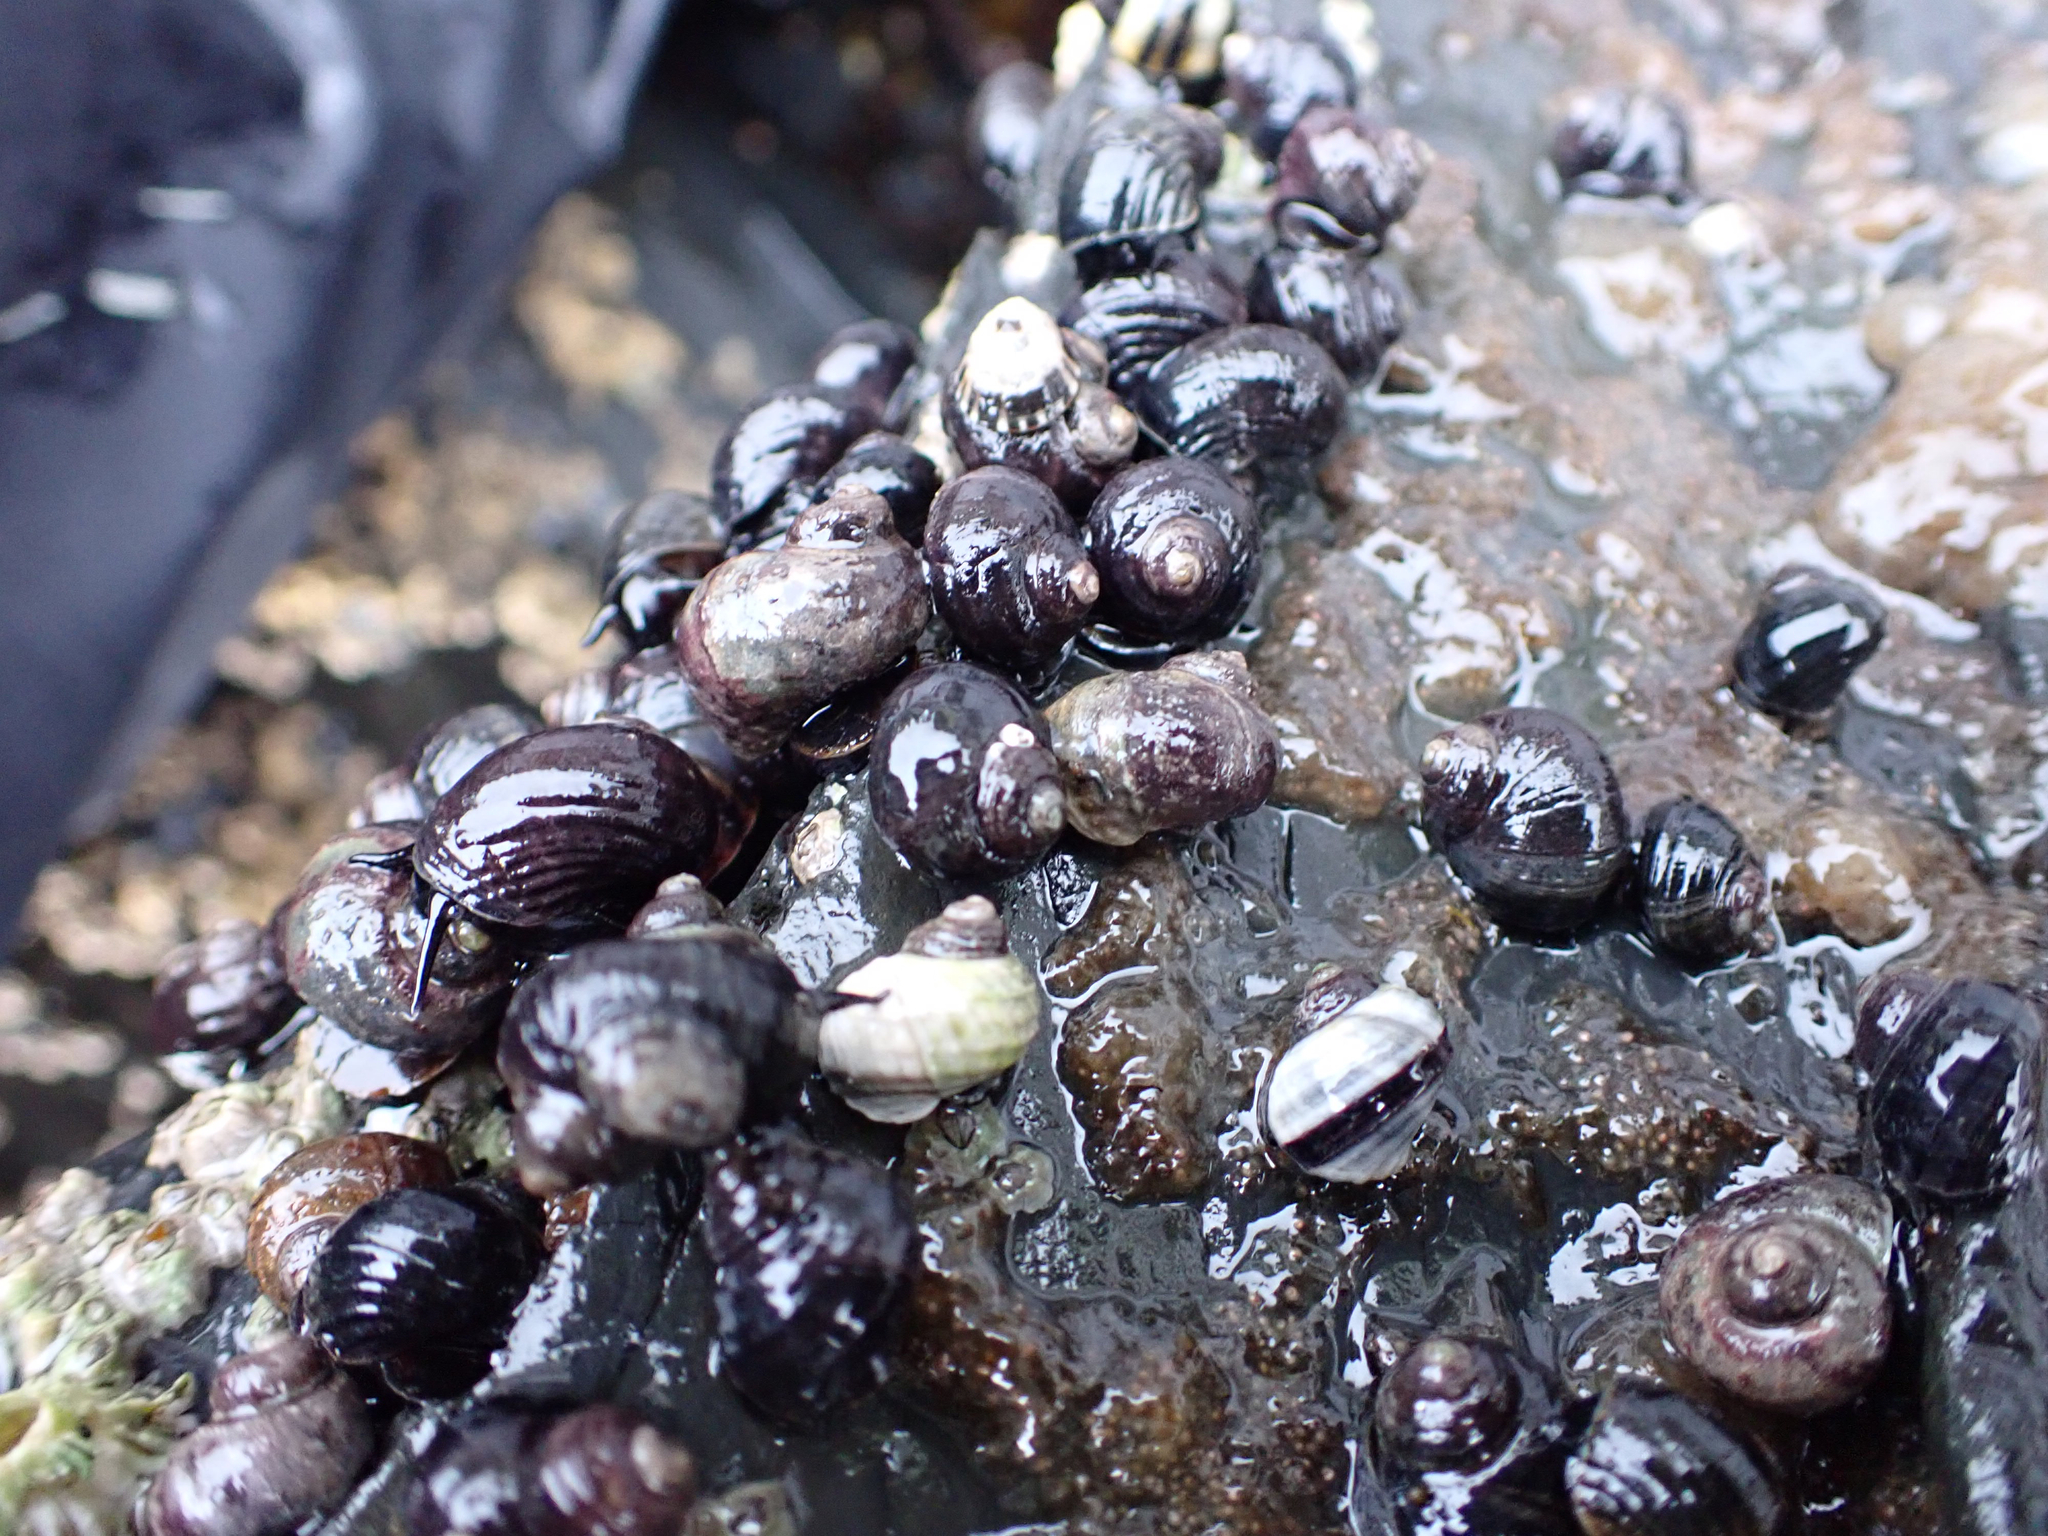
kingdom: Animalia
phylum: Mollusca
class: Gastropoda
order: Littorinimorpha
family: Littorinidae
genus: Littorina
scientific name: Littorina sitkana
